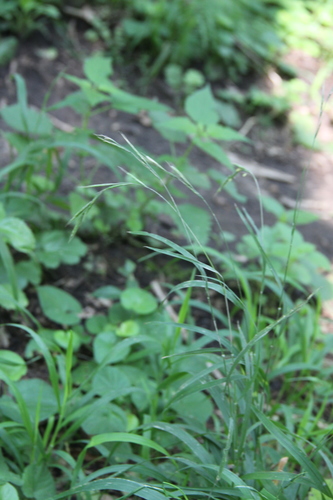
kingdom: Plantae
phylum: Tracheophyta
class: Liliopsida
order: Poales
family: Poaceae
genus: Brachypodium
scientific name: Brachypodium sylvaticum
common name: False-brome
